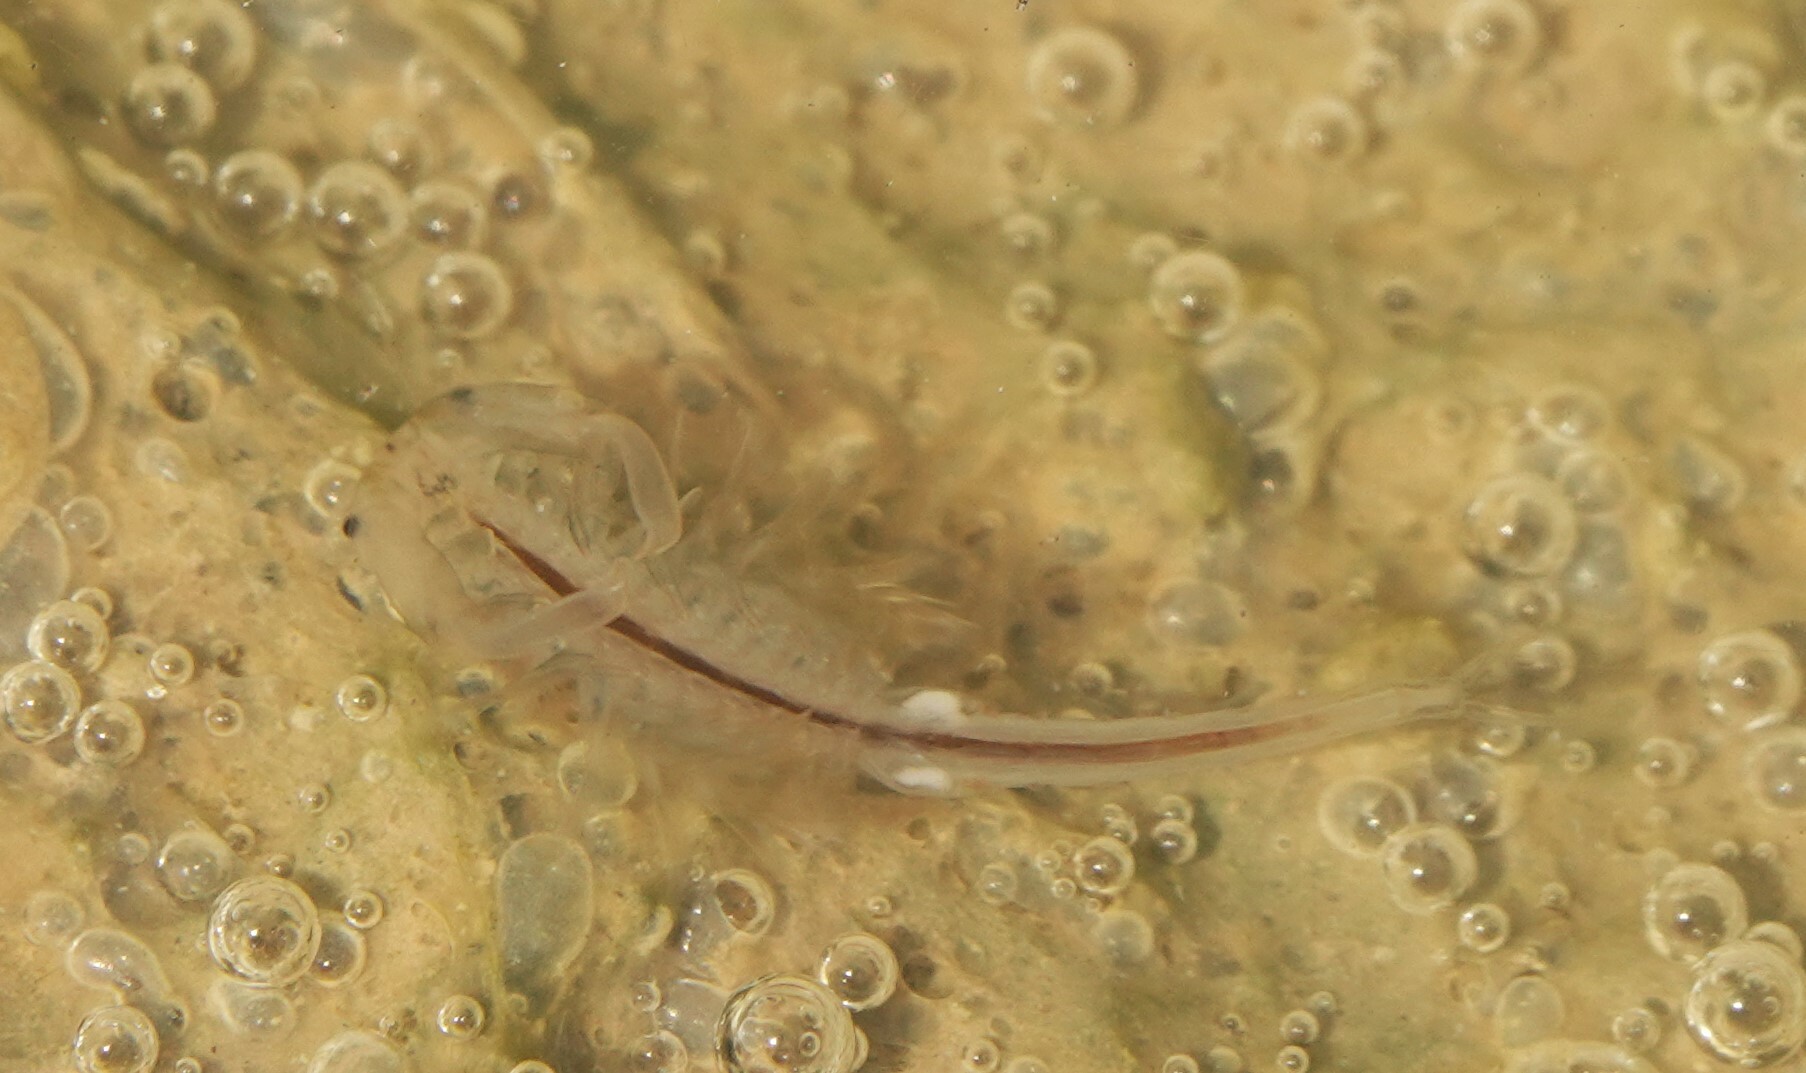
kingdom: Animalia
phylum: Arthropoda
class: Branchiopoda
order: Anostraca
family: Branchinectidae
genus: Branchinecta
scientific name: Branchinecta lindahli
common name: Versatile fairy shrimp
